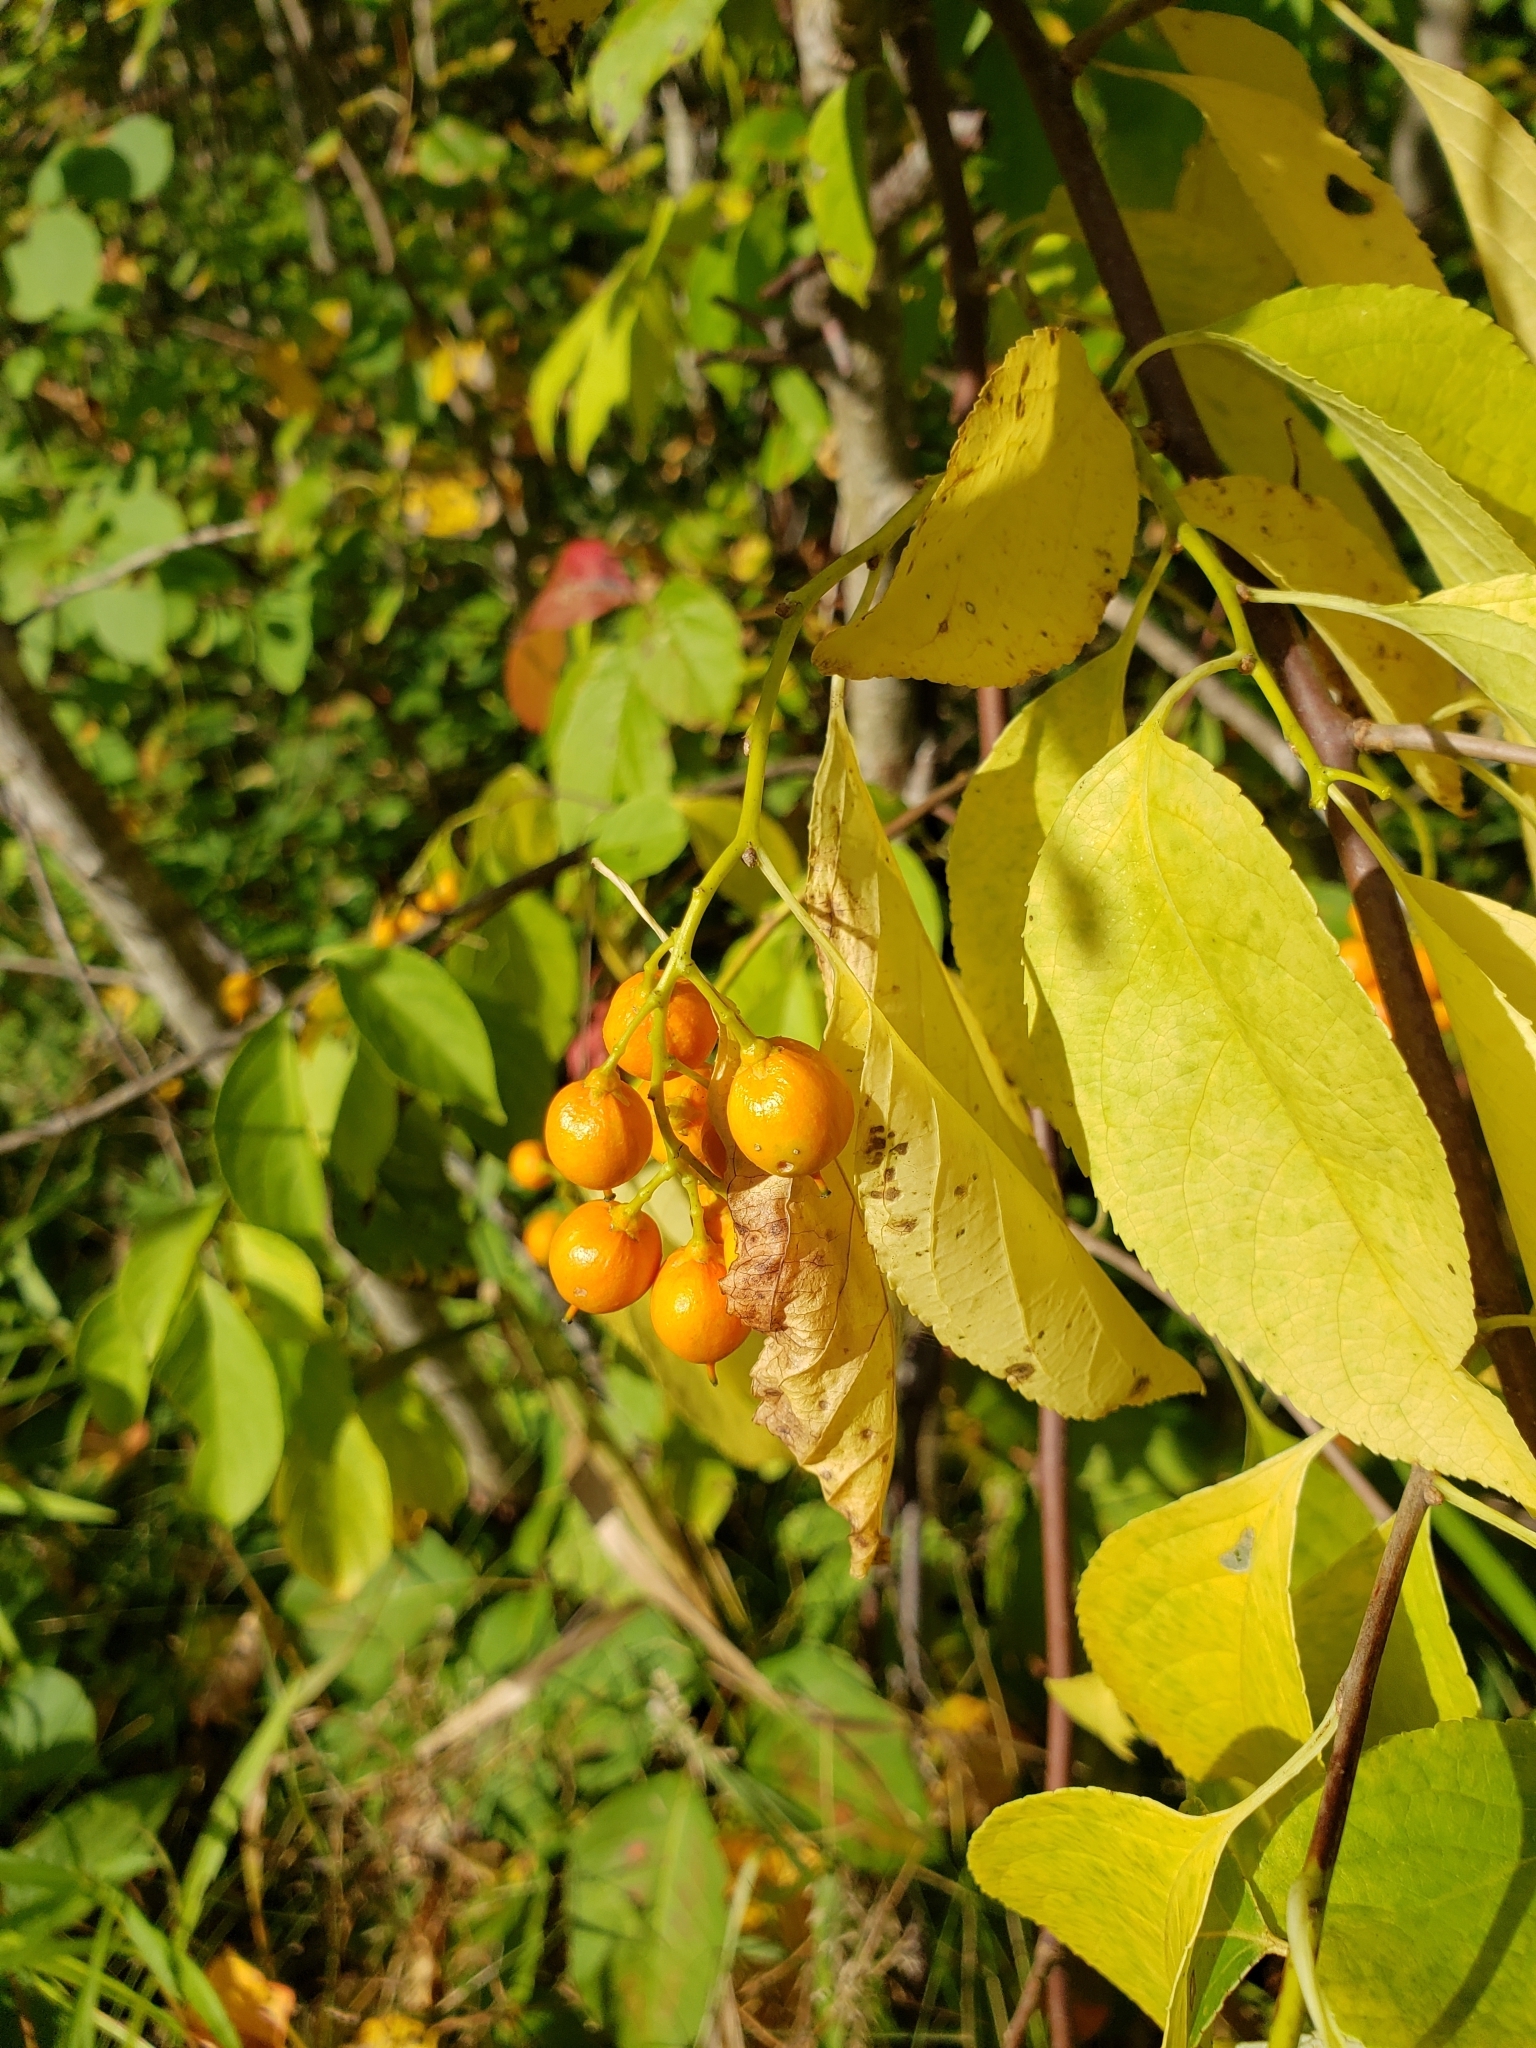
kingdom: Plantae
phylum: Tracheophyta
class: Magnoliopsida
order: Celastrales
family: Celastraceae
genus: Celastrus
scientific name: Celastrus scandens
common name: American bittersweet
